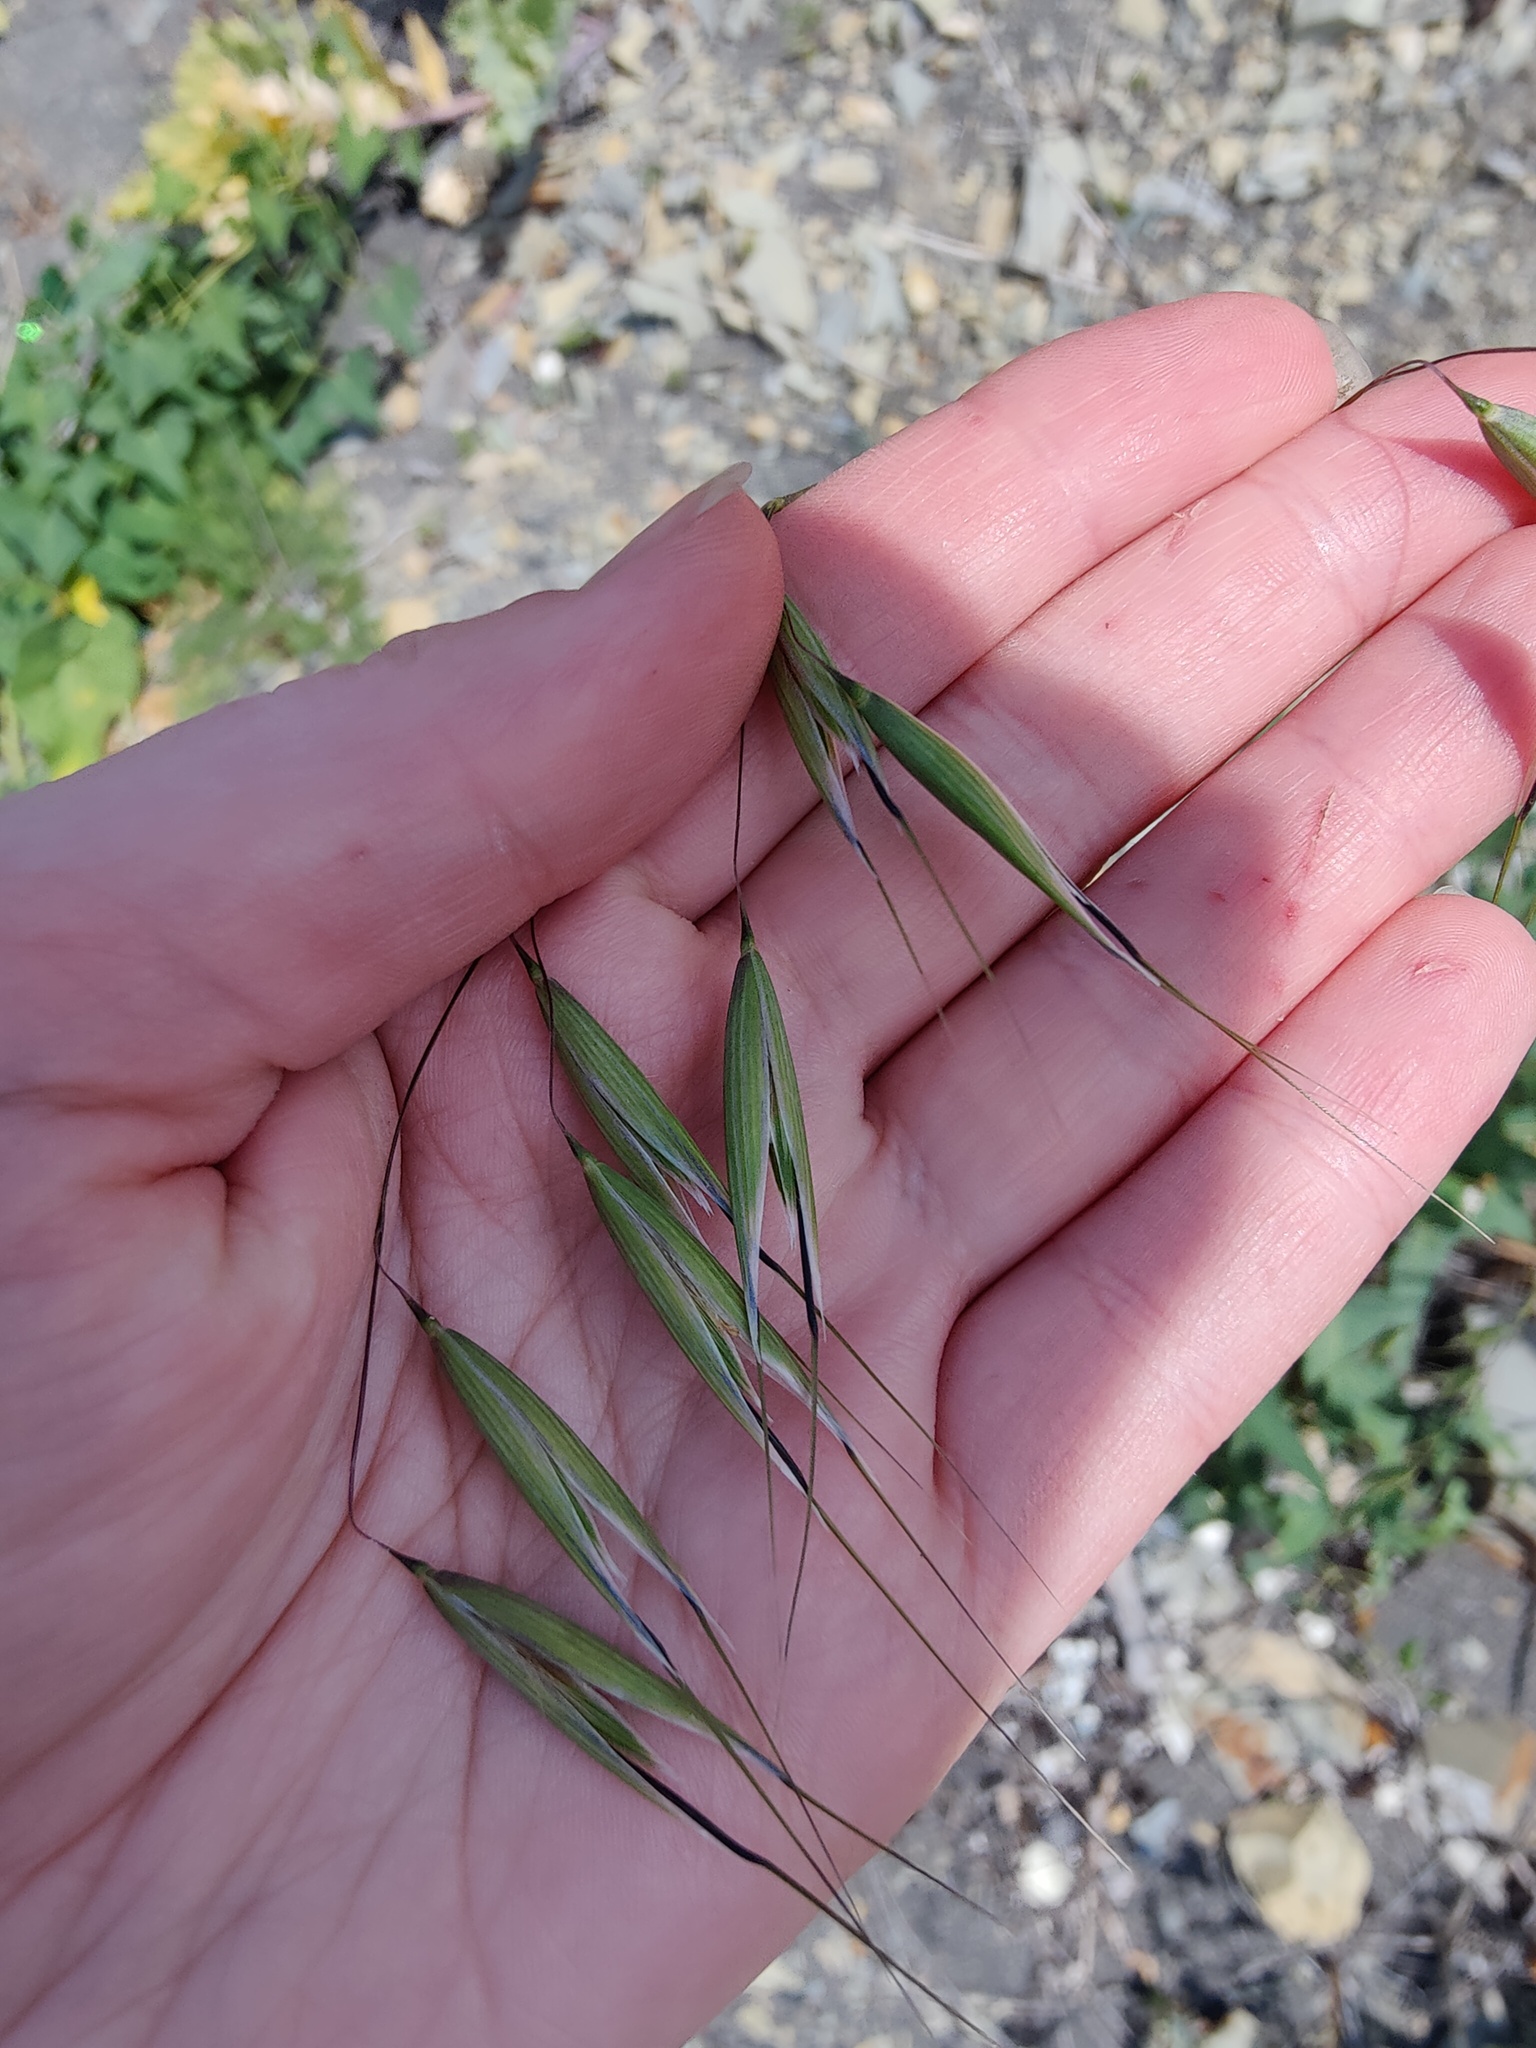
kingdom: Plantae
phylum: Tracheophyta
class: Liliopsida
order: Poales
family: Poaceae
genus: Avena
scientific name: Avena fatua
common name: Wild oat
